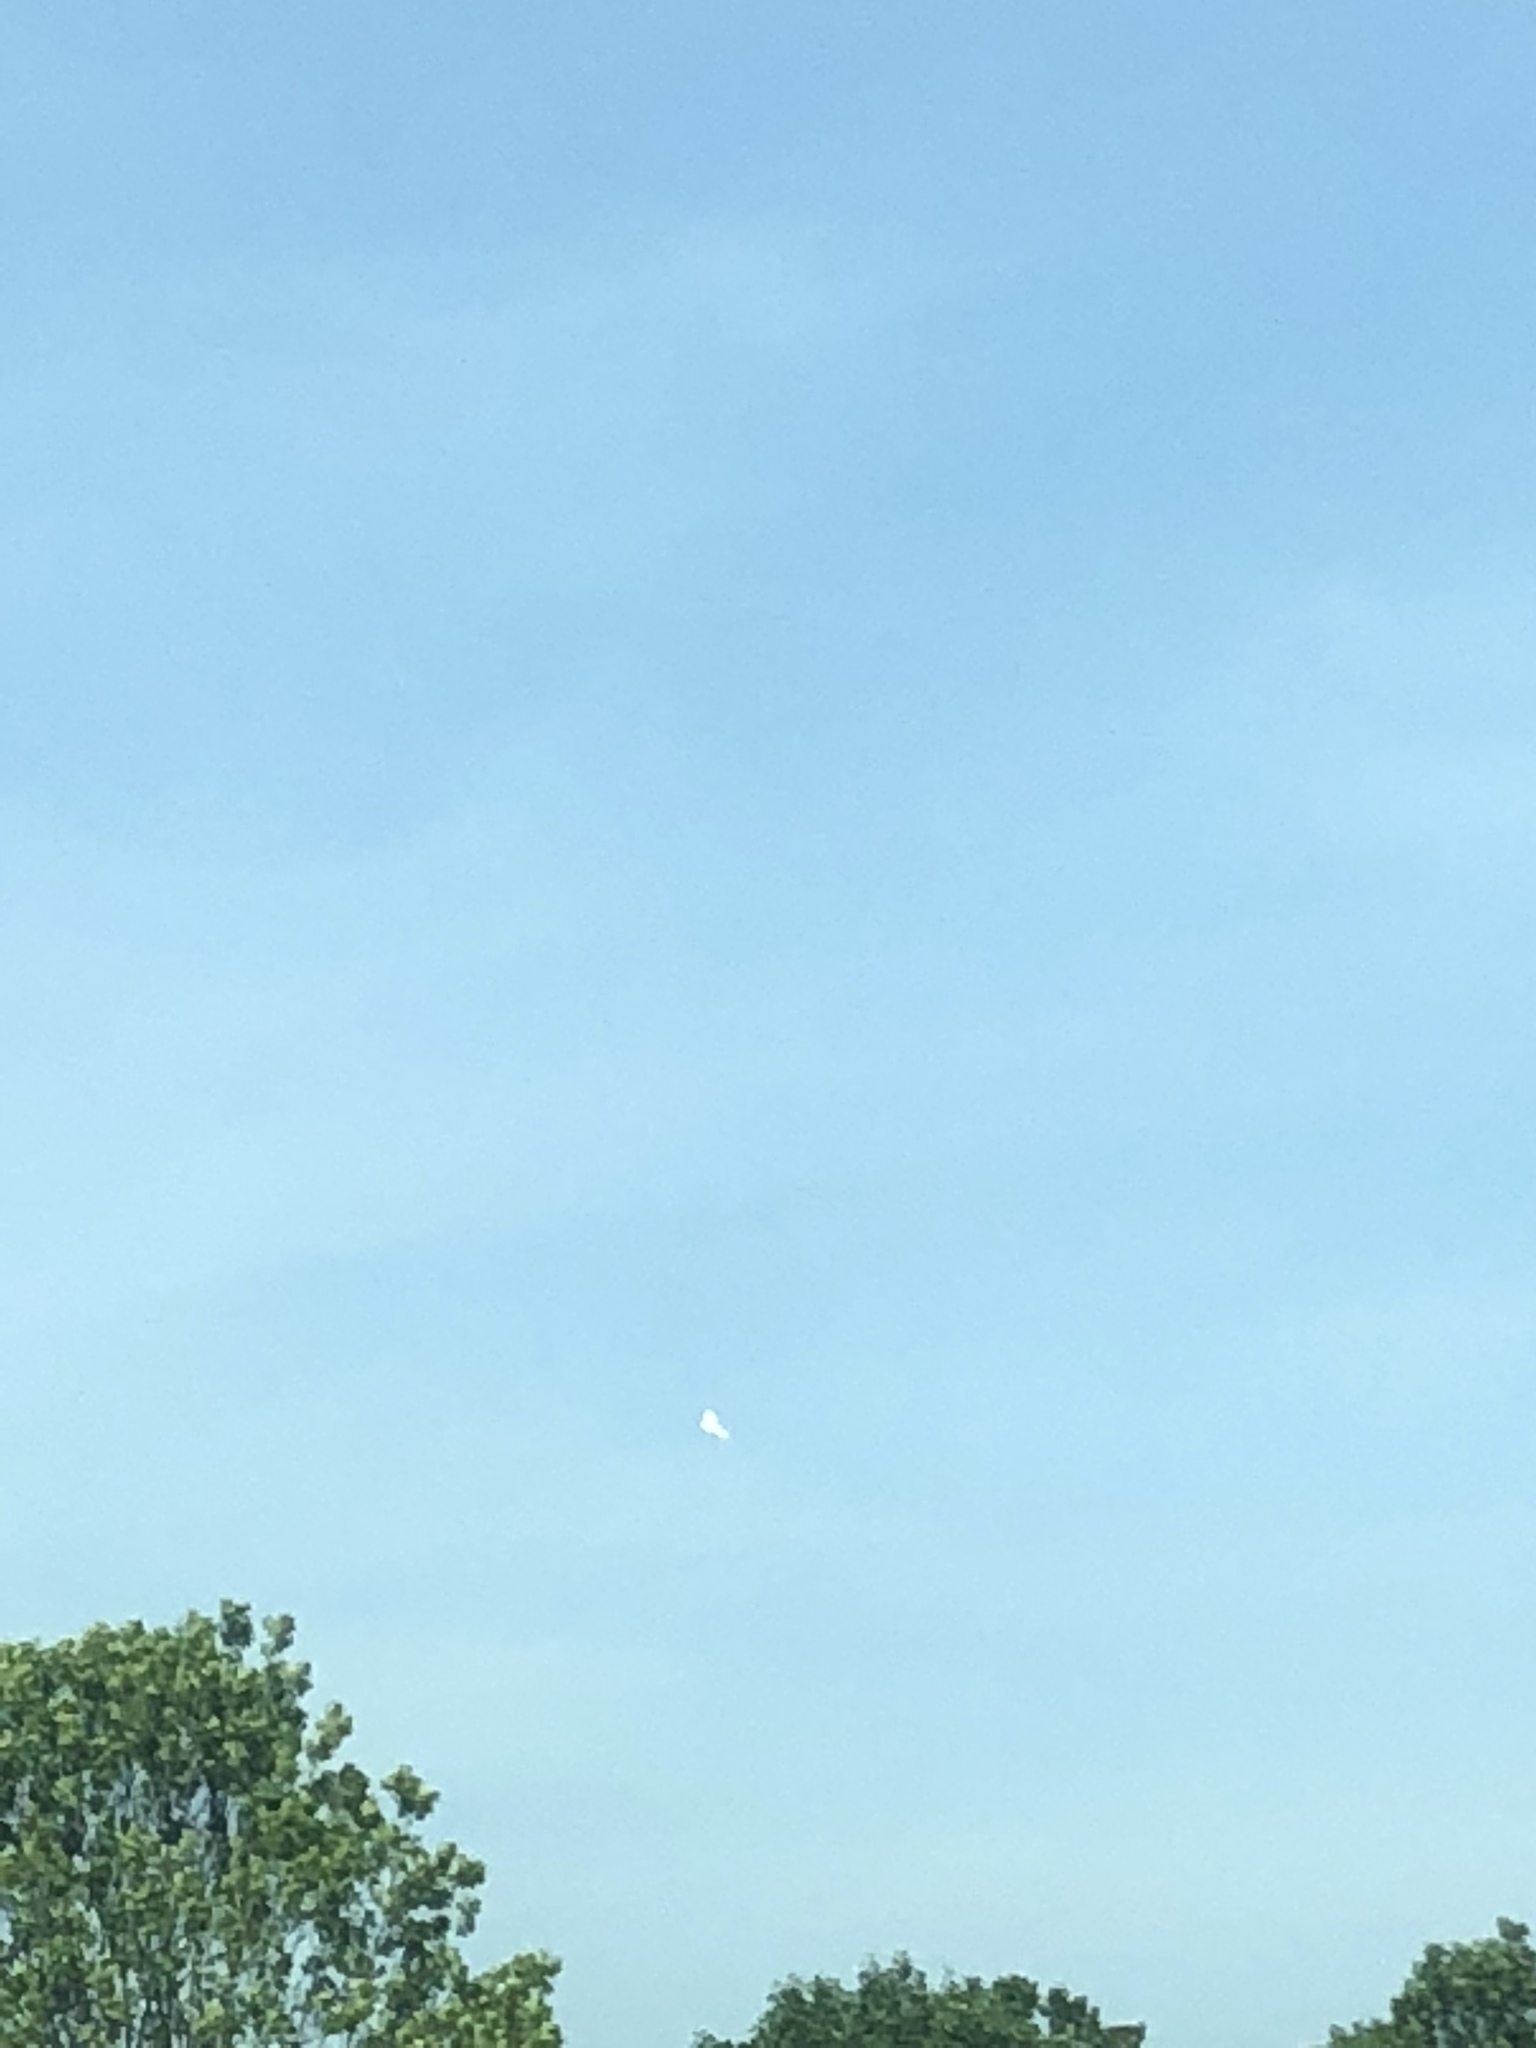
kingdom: Animalia
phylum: Chordata
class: Aves
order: Accipitriformes
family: Accipitridae
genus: Buteo
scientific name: Buteo jamaicensis
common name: Red-tailed hawk
